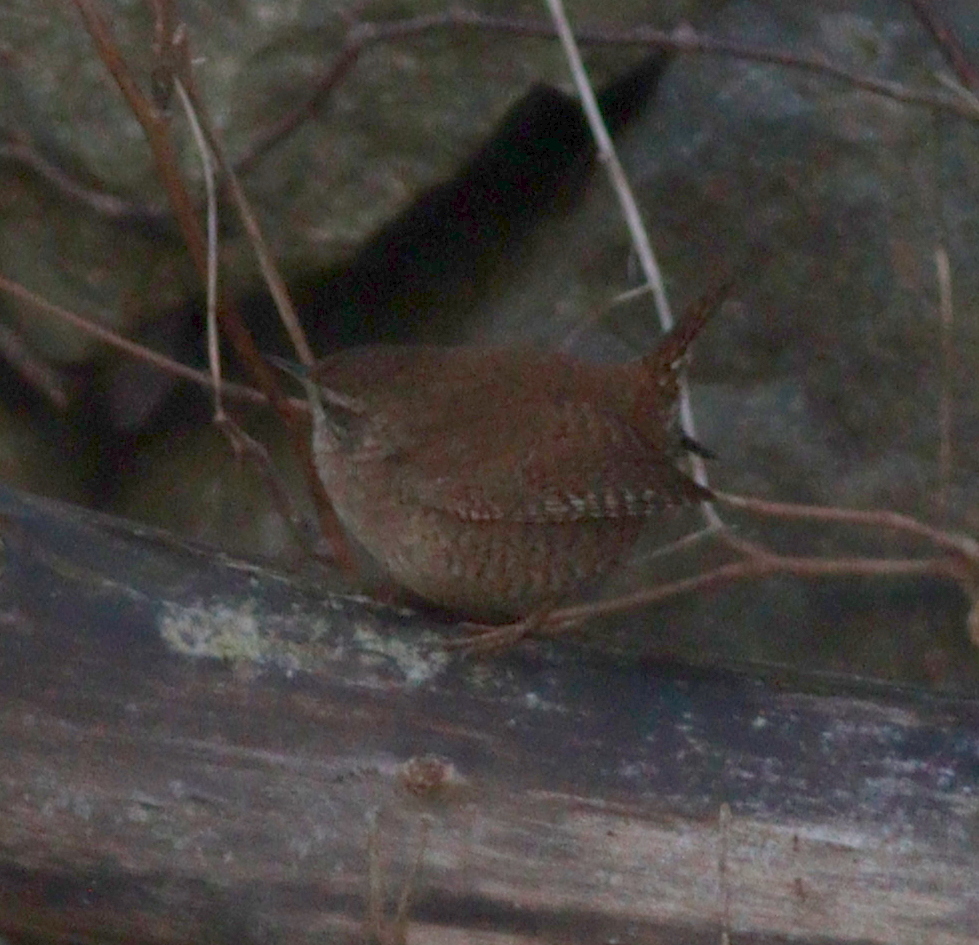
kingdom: Animalia
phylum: Chordata
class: Aves
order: Passeriformes
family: Troglodytidae
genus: Troglodytes
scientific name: Troglodytes troglodytes
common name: Eurasian wren
